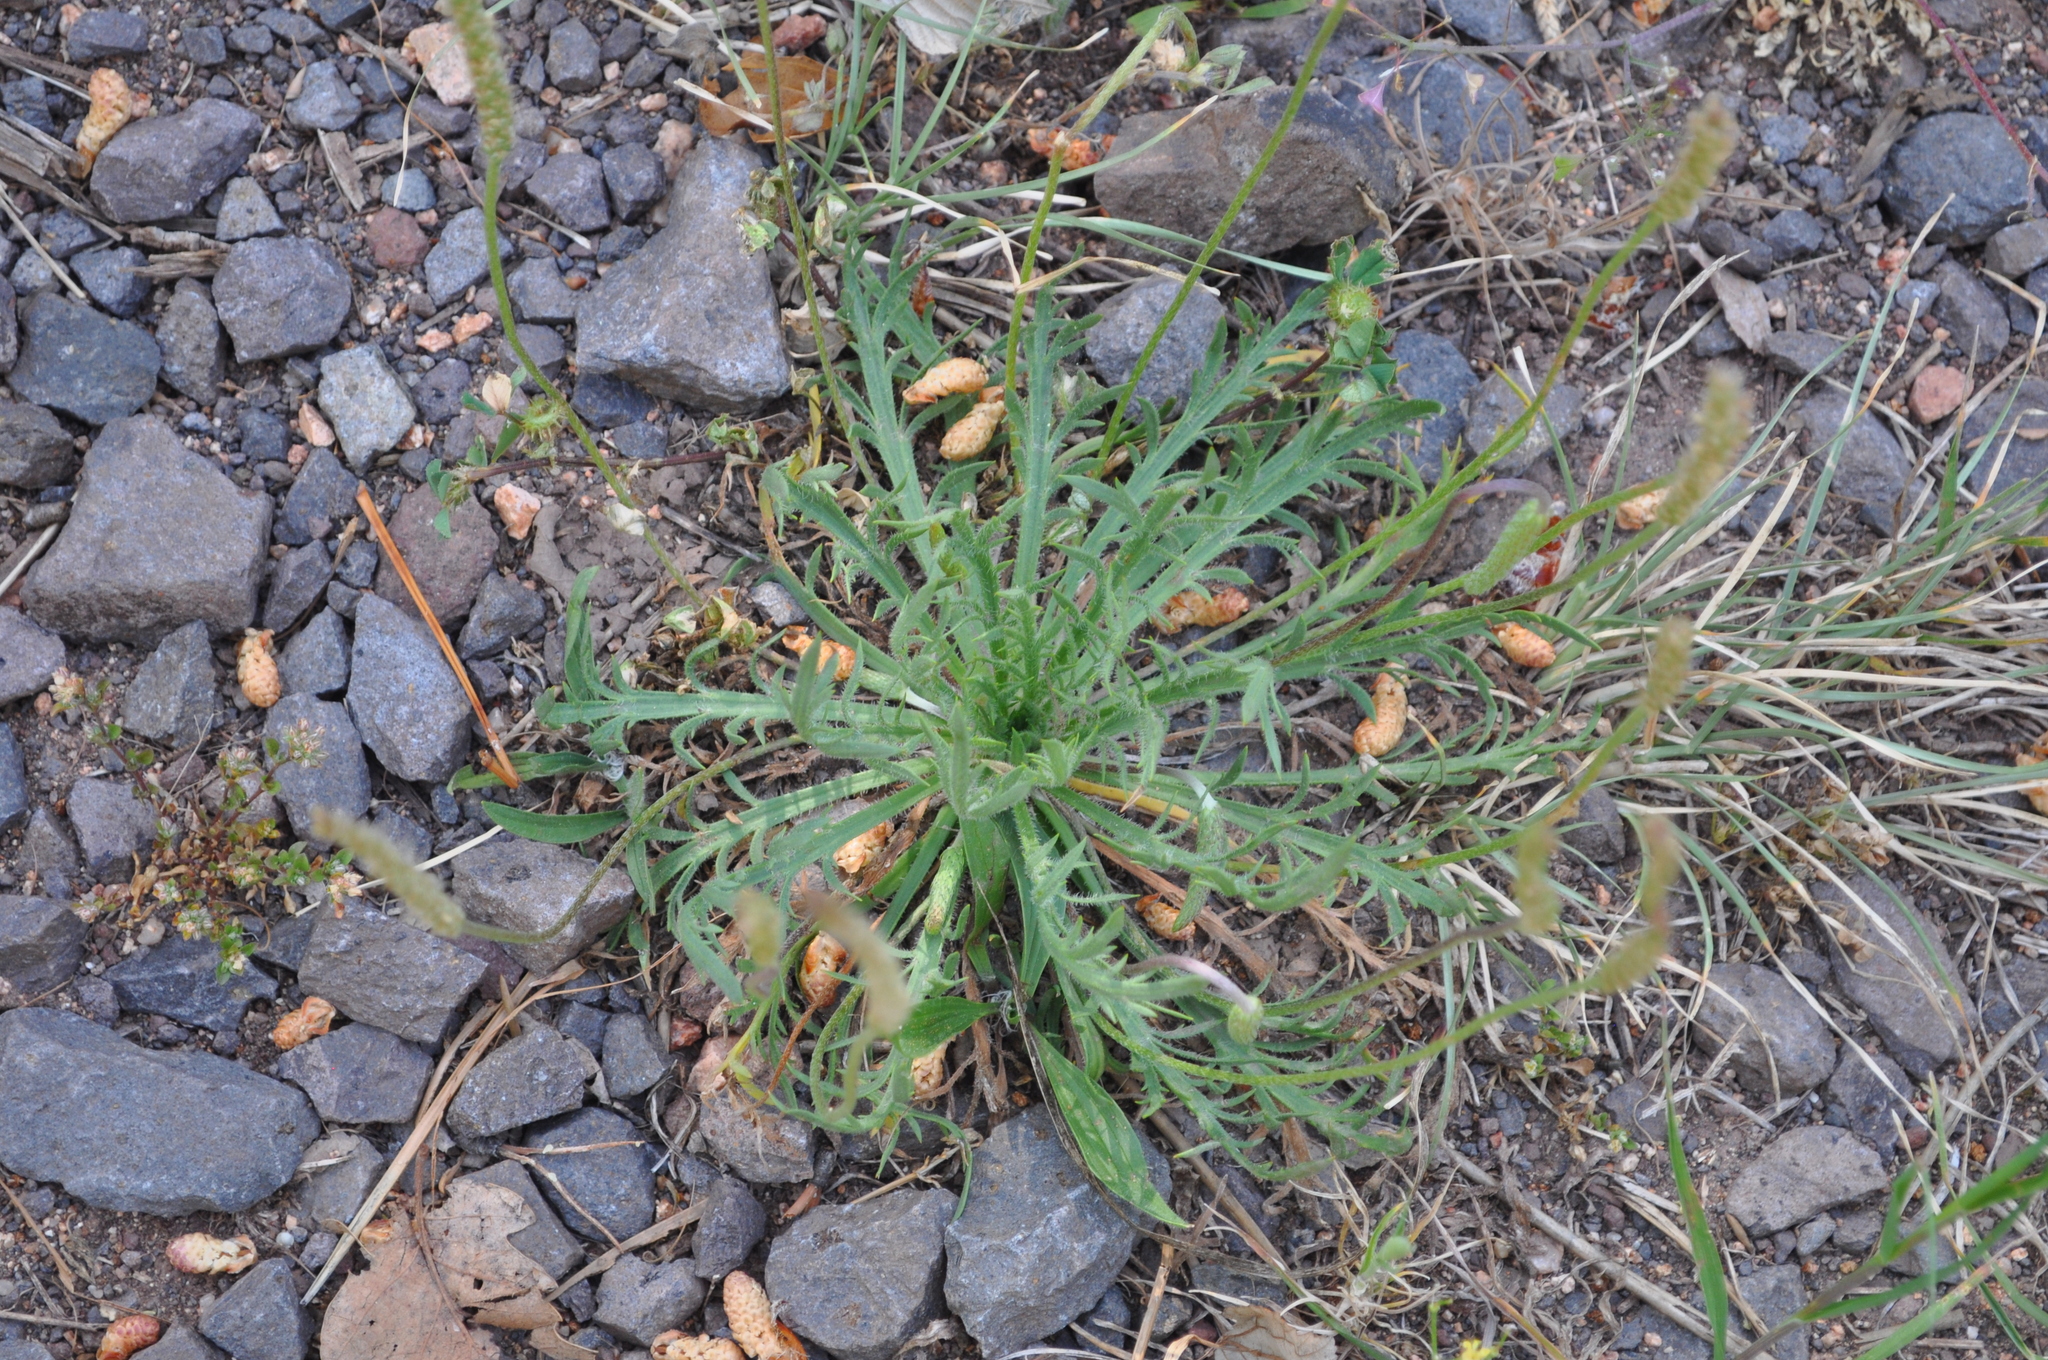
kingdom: Plantae
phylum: Tracheophyta
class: Magnoliopsida
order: Lamiales
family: Plantaginaceae
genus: Plantago
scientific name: Plantago coronopus
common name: Buck's-horn plantain
